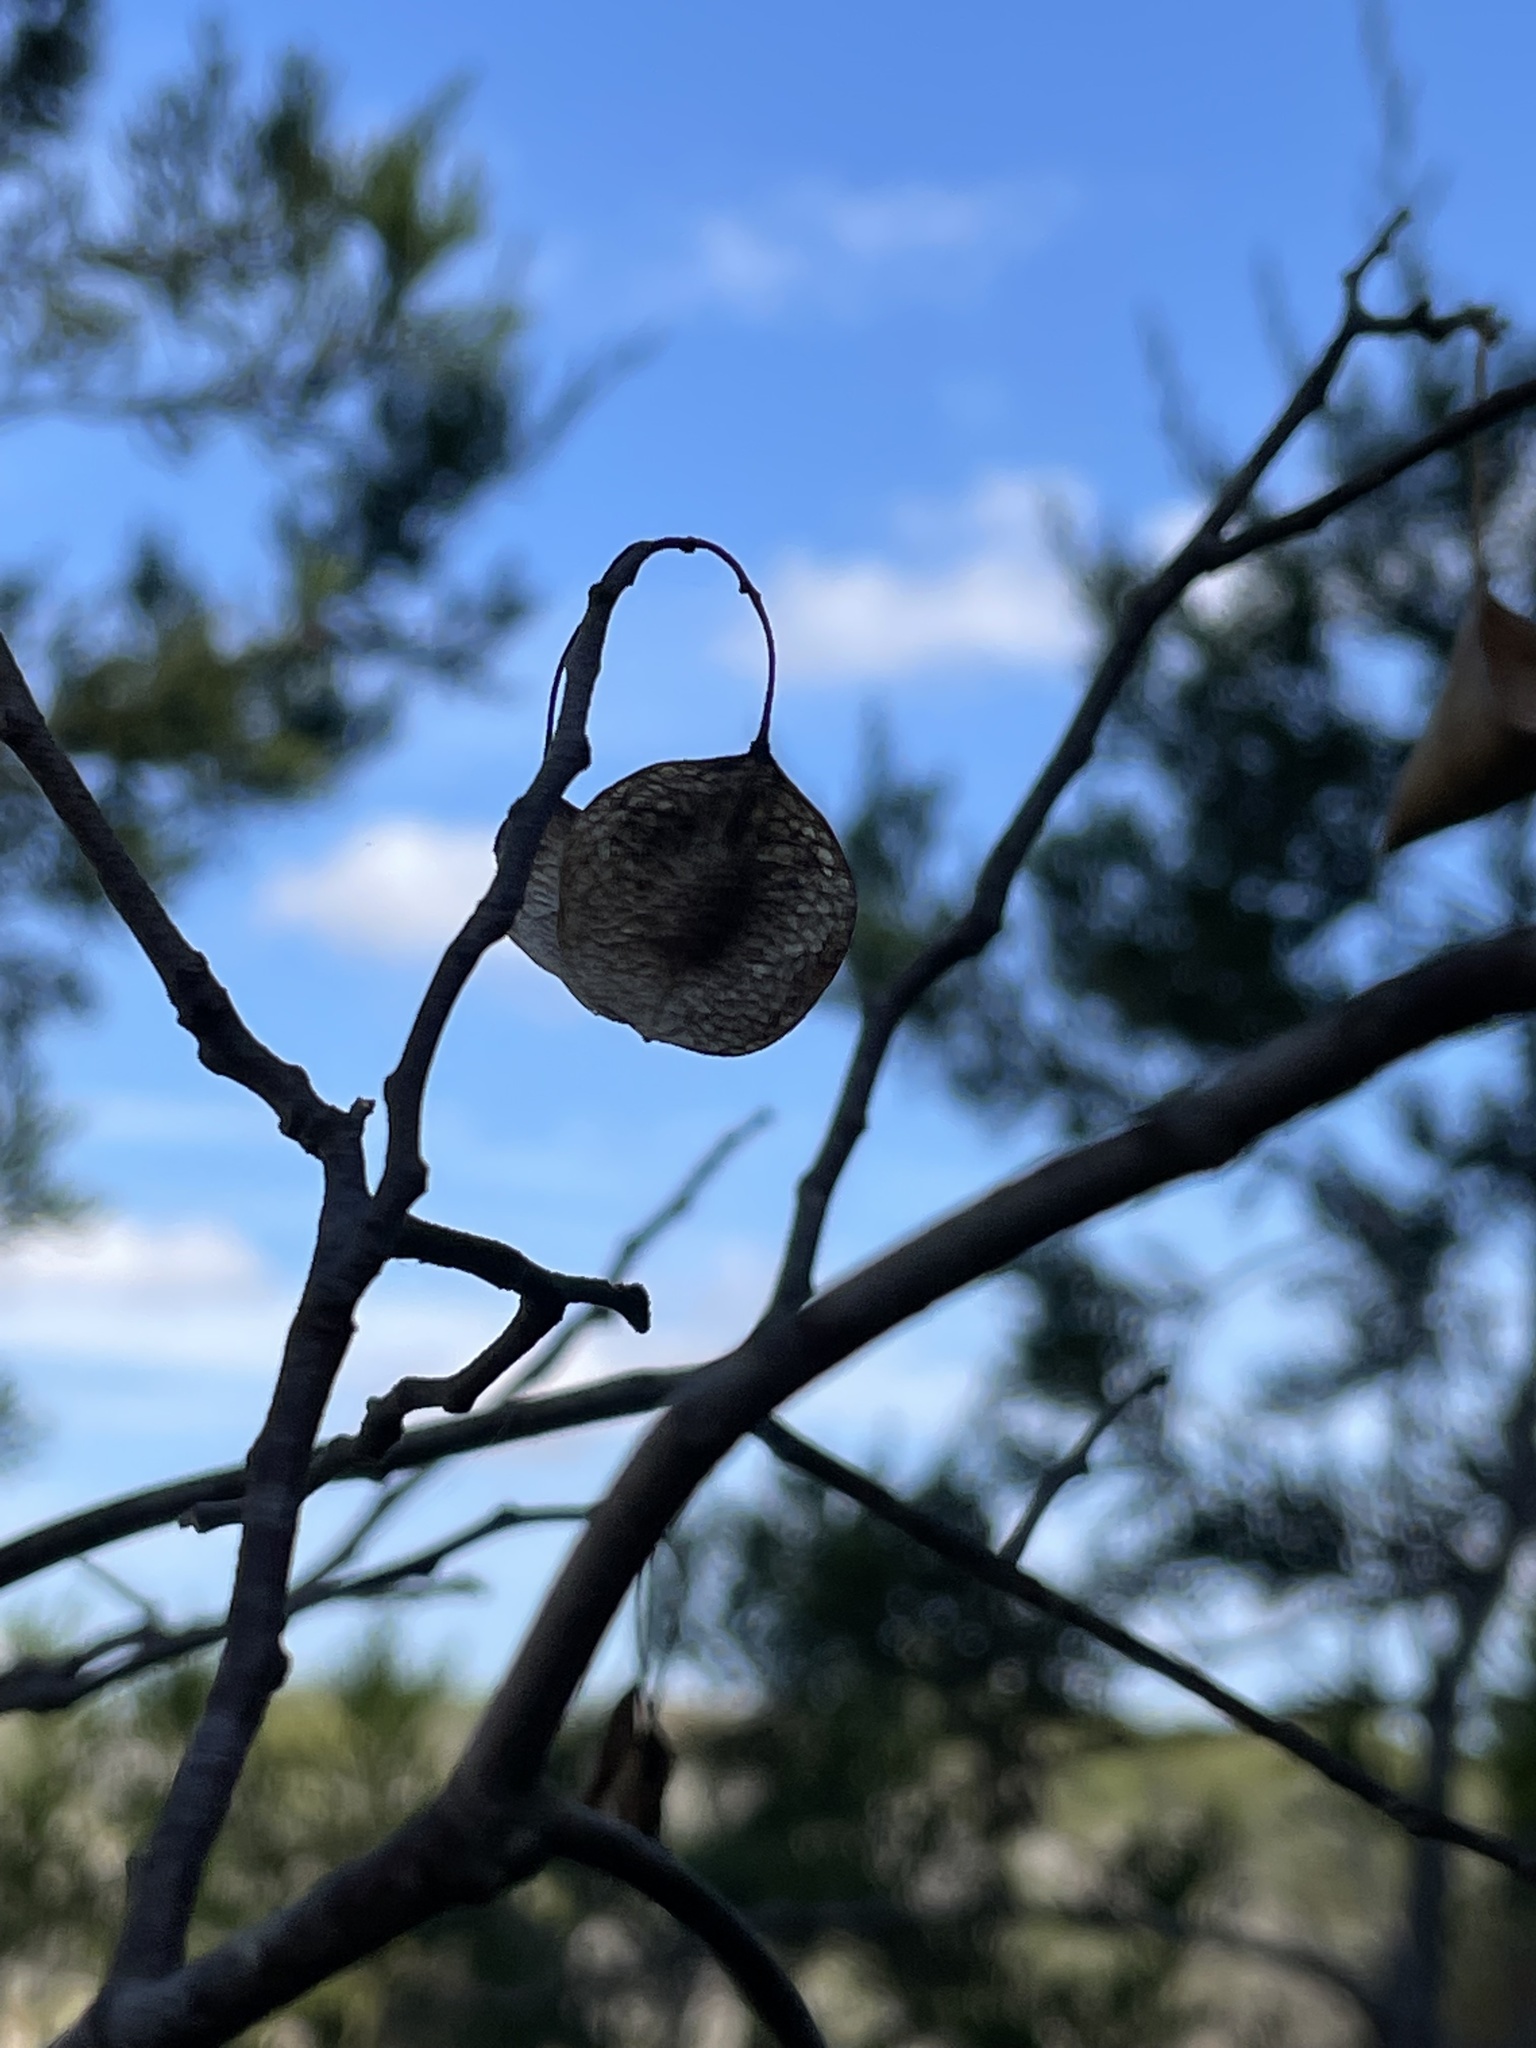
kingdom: Plantae
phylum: Tracheophyta
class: Magnoliopsida
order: Sapindales
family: Rutaceae
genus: Ptelea
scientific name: Ptelea trifoliata
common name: Common hop-tree
